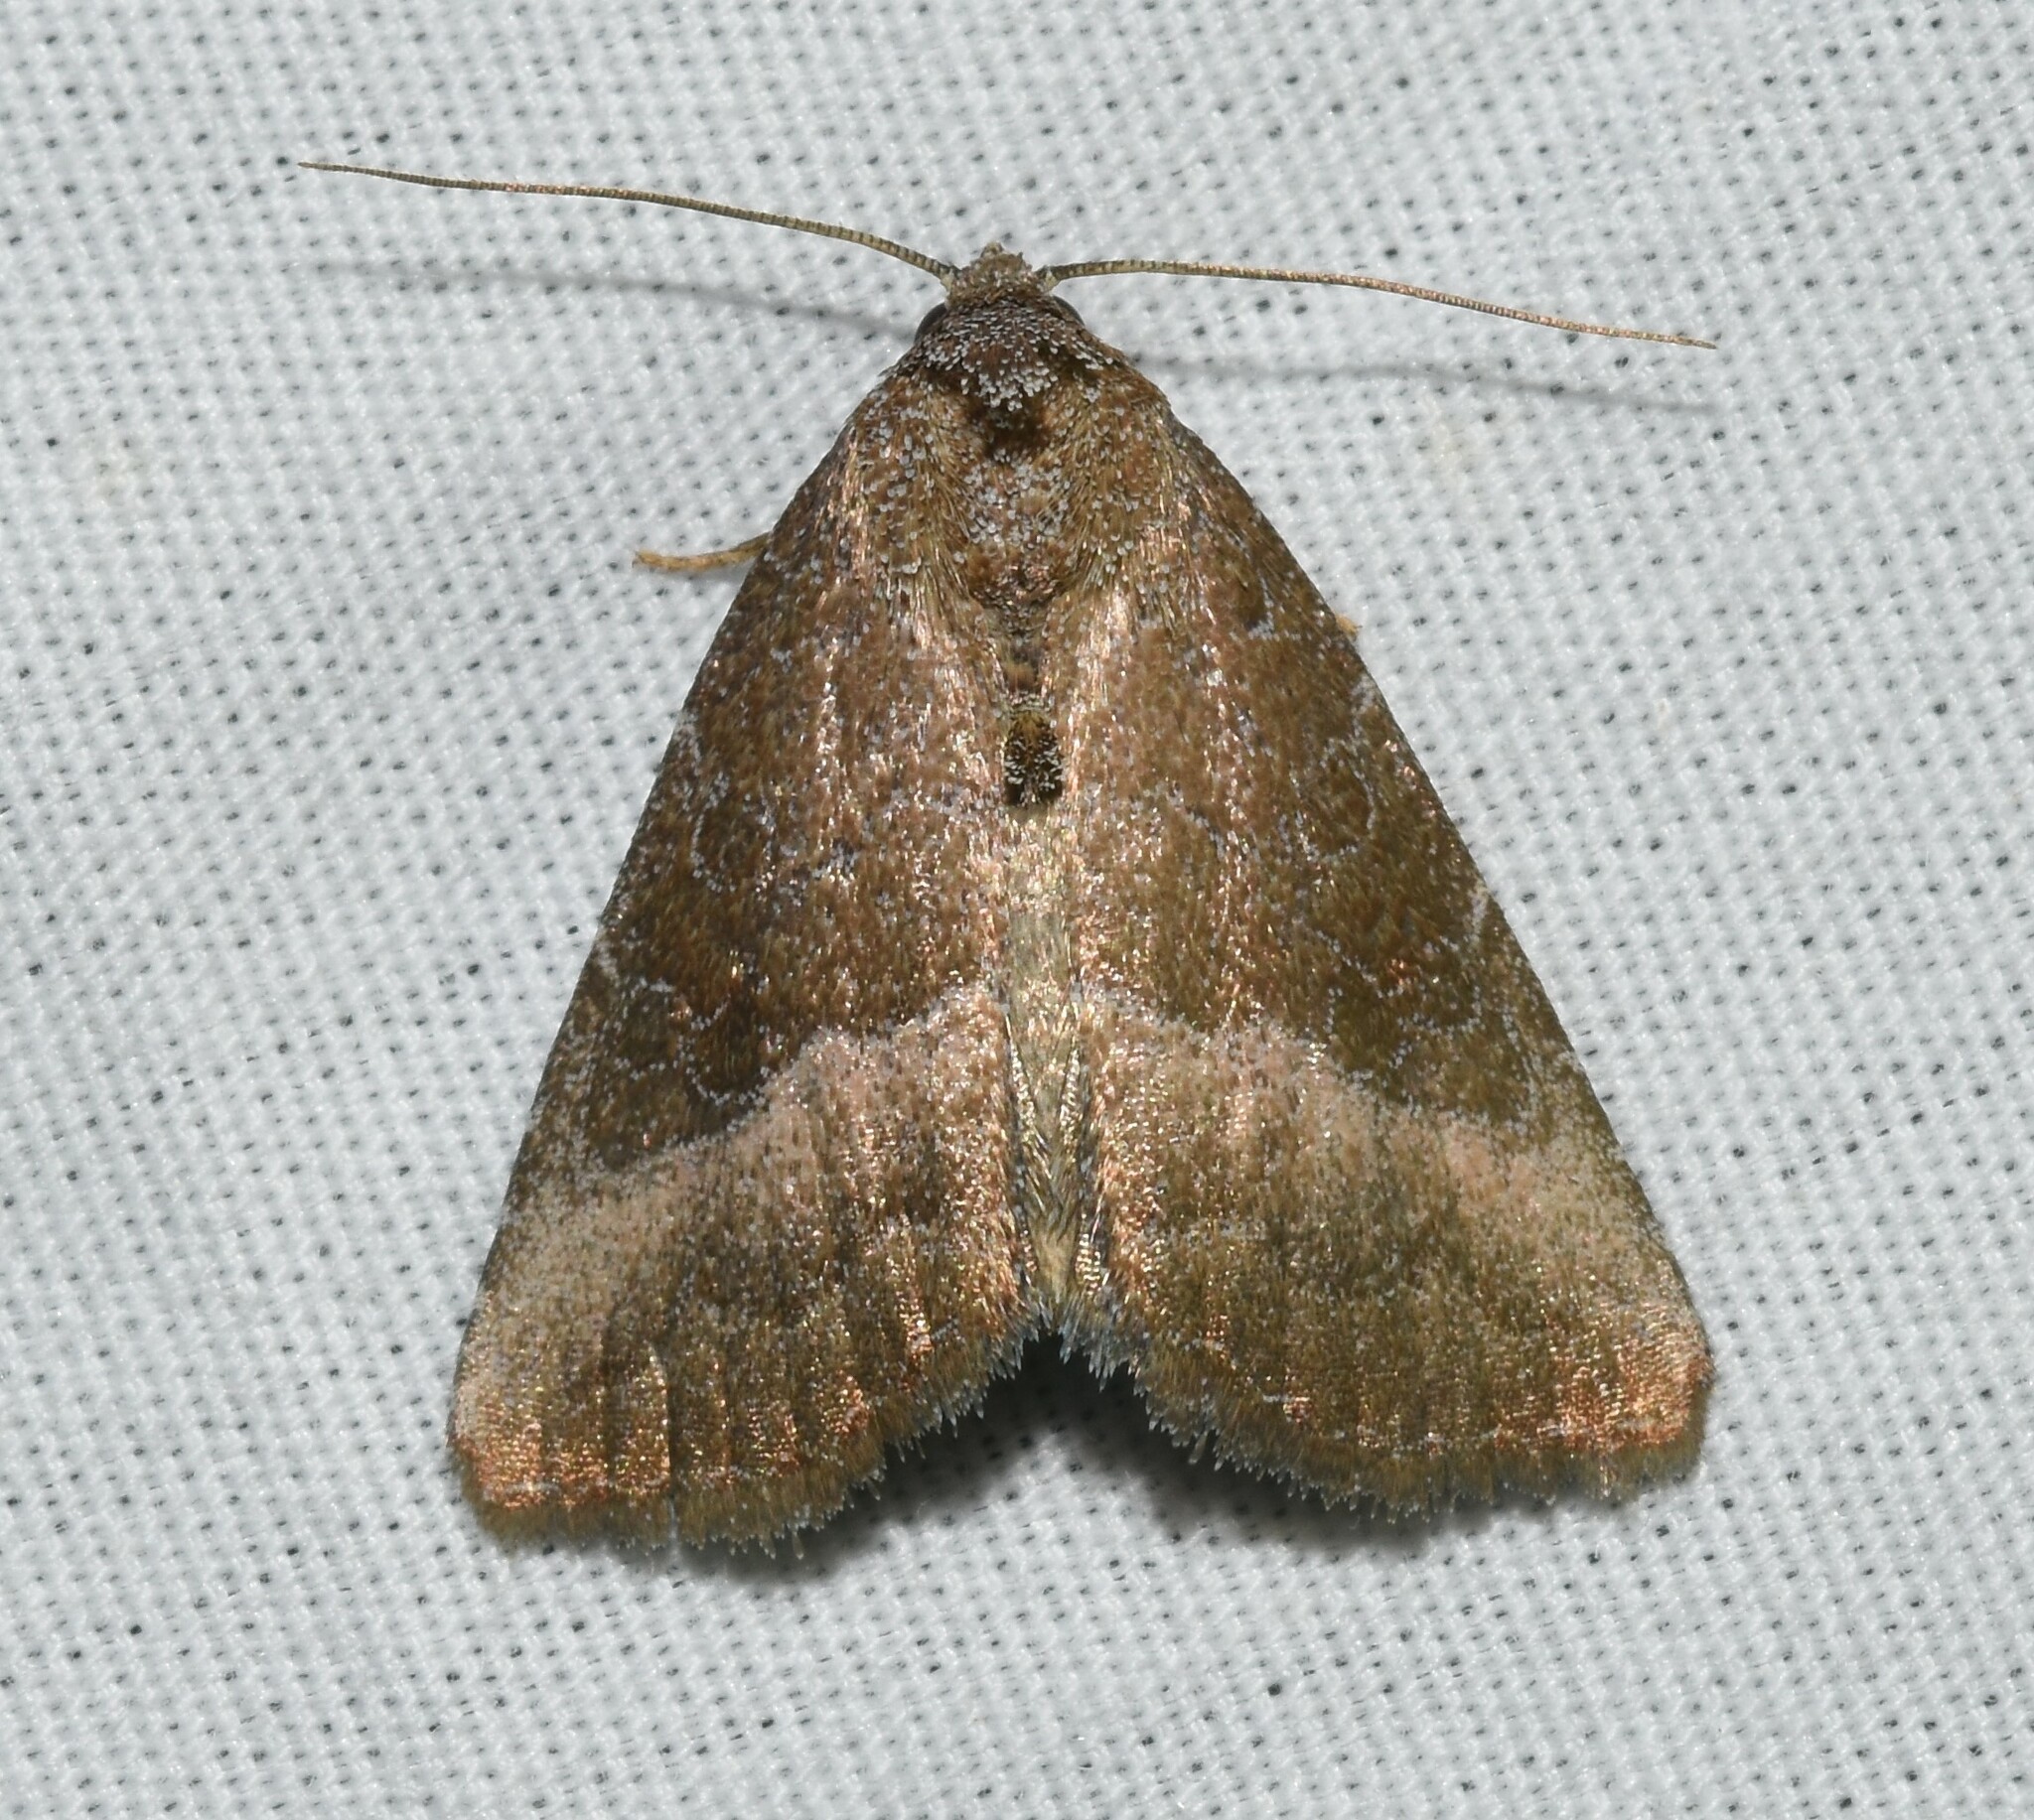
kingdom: Animalia
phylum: Arthropoda
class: Insecta
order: Lepidoptera
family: Noctuidae
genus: Ogdoconta
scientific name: Ogdoconta cinereola
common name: Common pinkband
